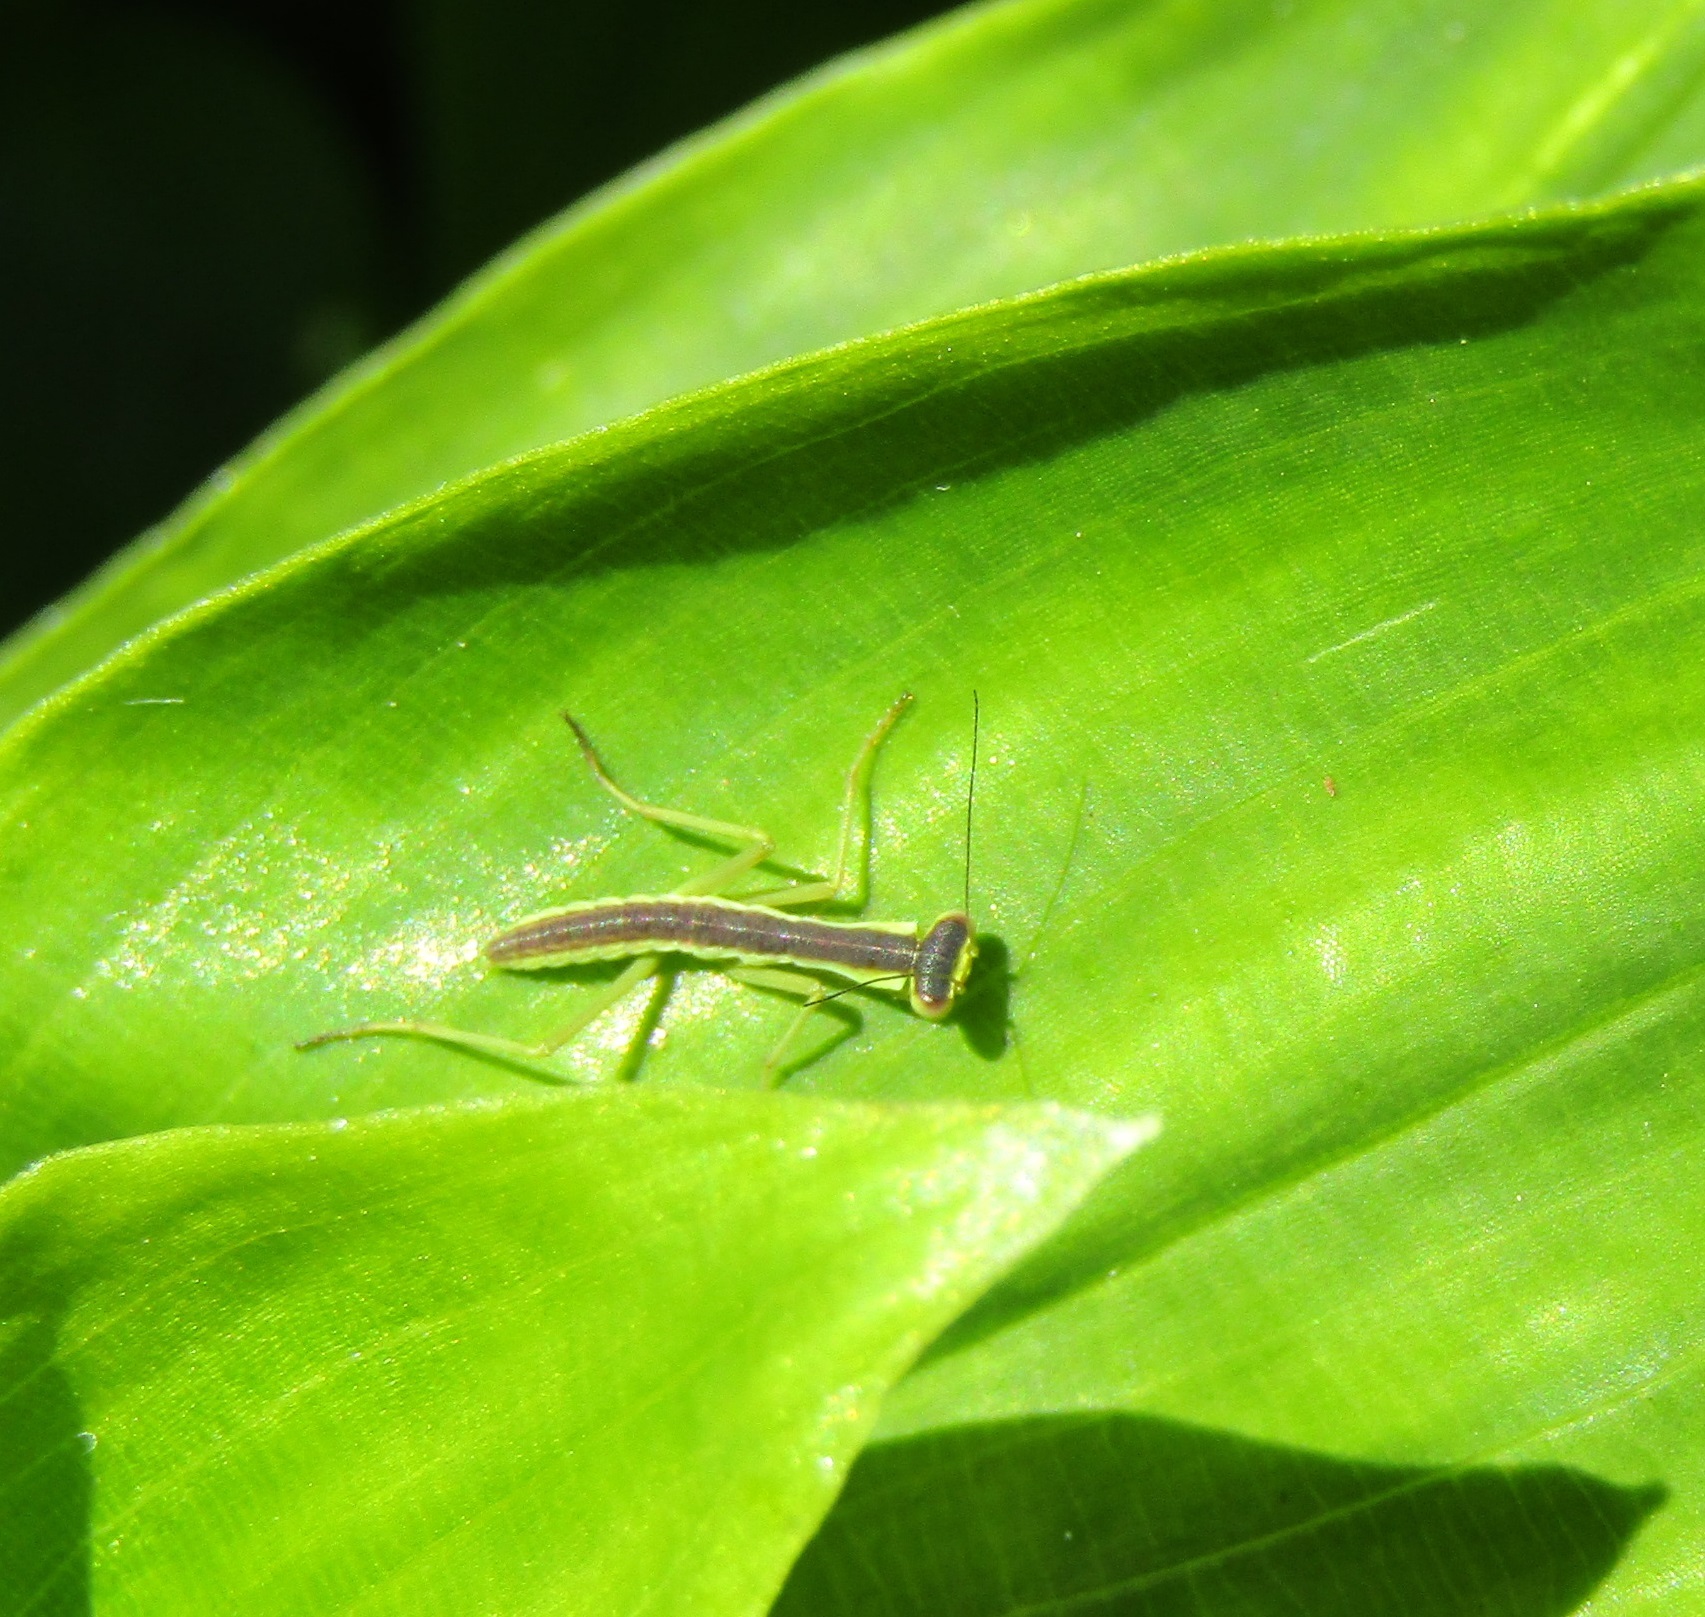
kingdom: Animalia
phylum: Arthropoda
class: Insecta
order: Mantodea
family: Mantidae
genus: Orthodera
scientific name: Orthodera novaezealandiae
